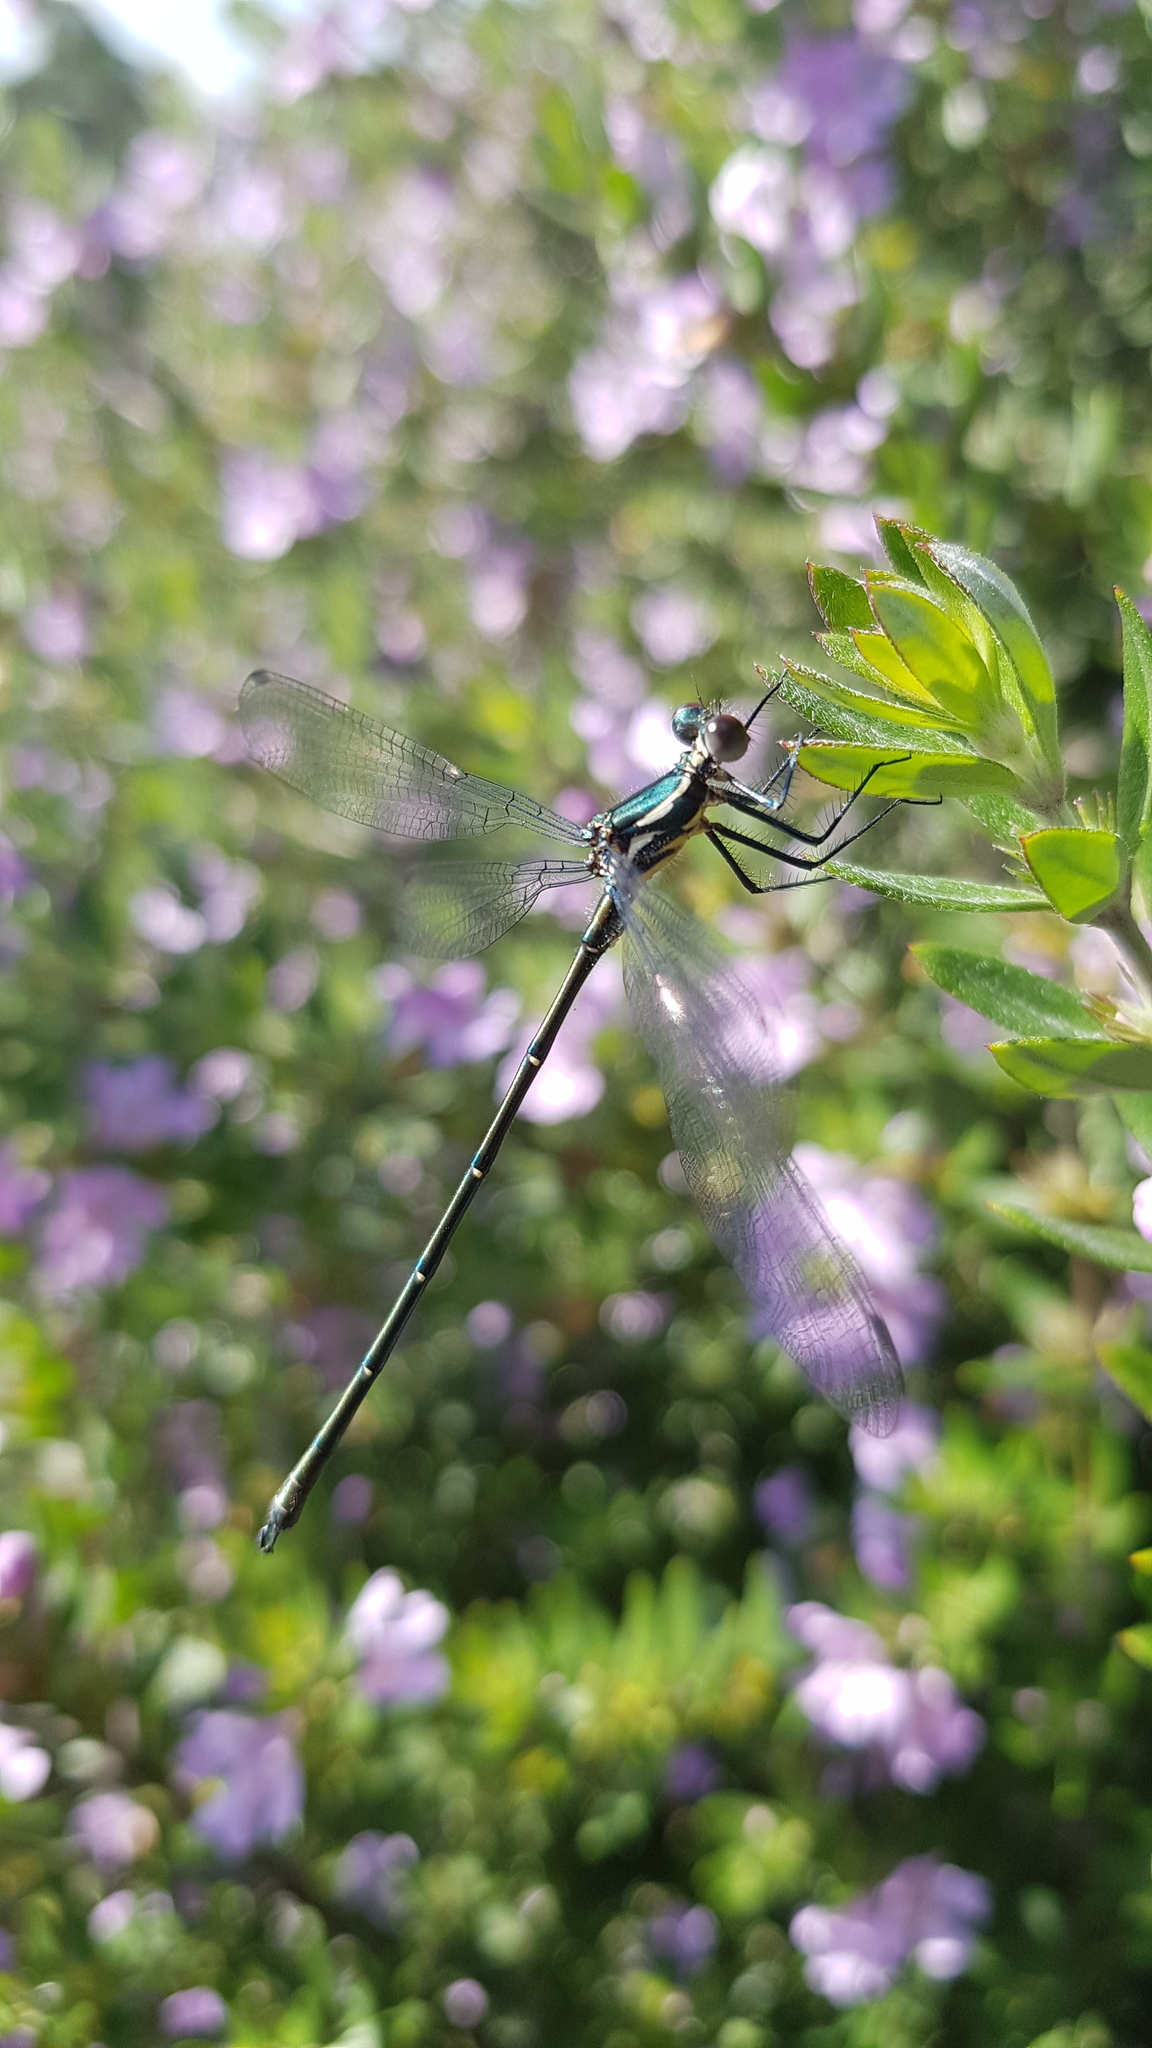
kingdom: Animalia
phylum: Arthropoda
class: Insecta
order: Odonata
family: Argiolestidae
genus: Austroargiolestes
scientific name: Austroargiolestes icteromelas
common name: Common flatwing
